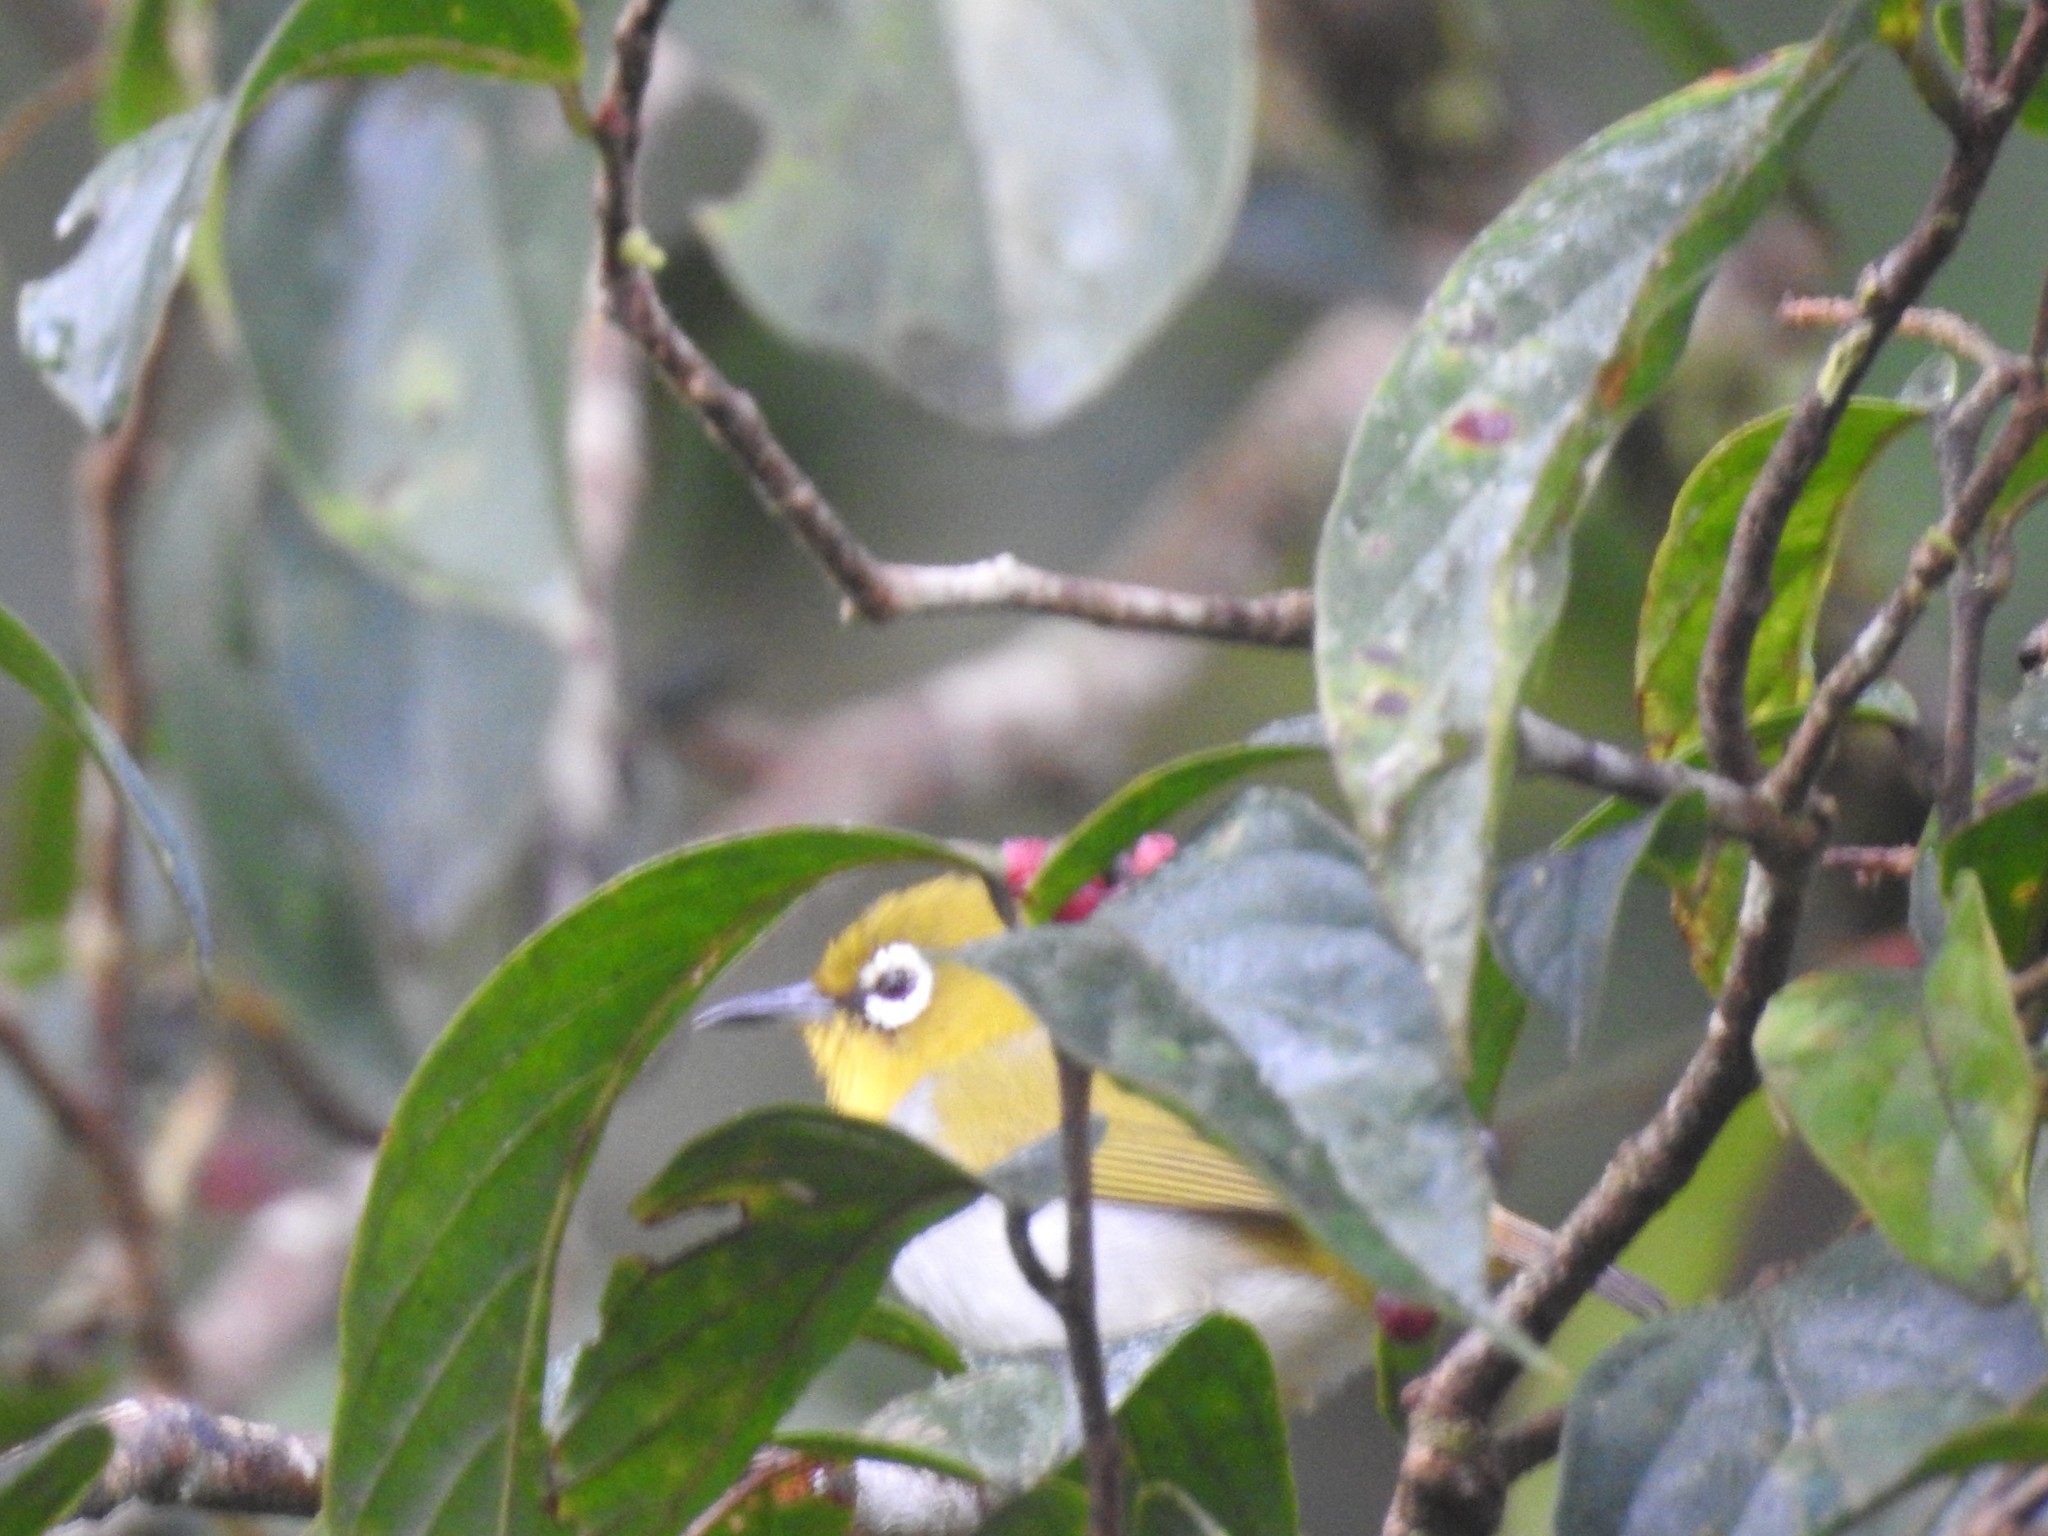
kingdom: Animalia
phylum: Chordata
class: Aves
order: Passeriformes
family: Zosteropidae
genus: Zosterops
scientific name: Zosterops palpebrosus
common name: Oriental white-eye
